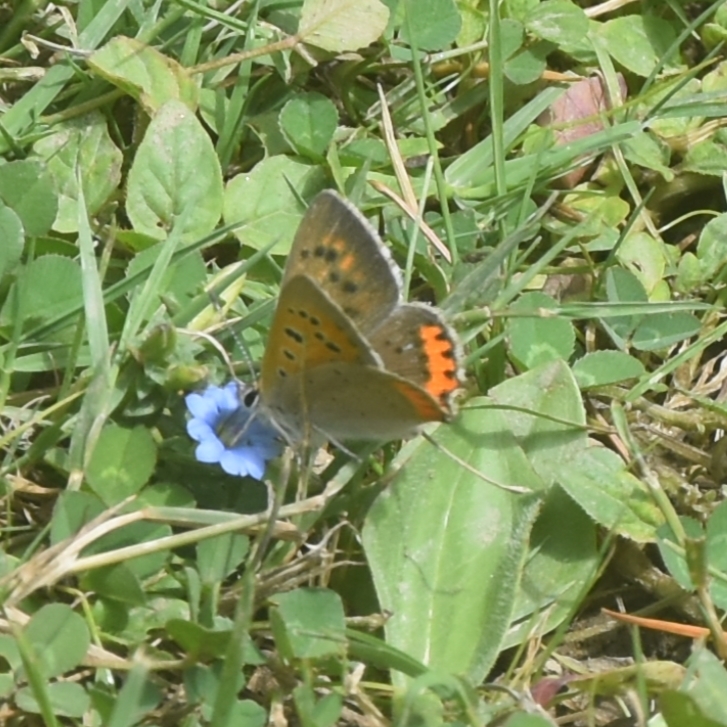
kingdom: Animalia
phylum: Arthropoda
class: Insecta
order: Lepidoptera
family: Lycaenidae
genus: Lycaena
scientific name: Lycaena phlaeas
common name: Small copper
